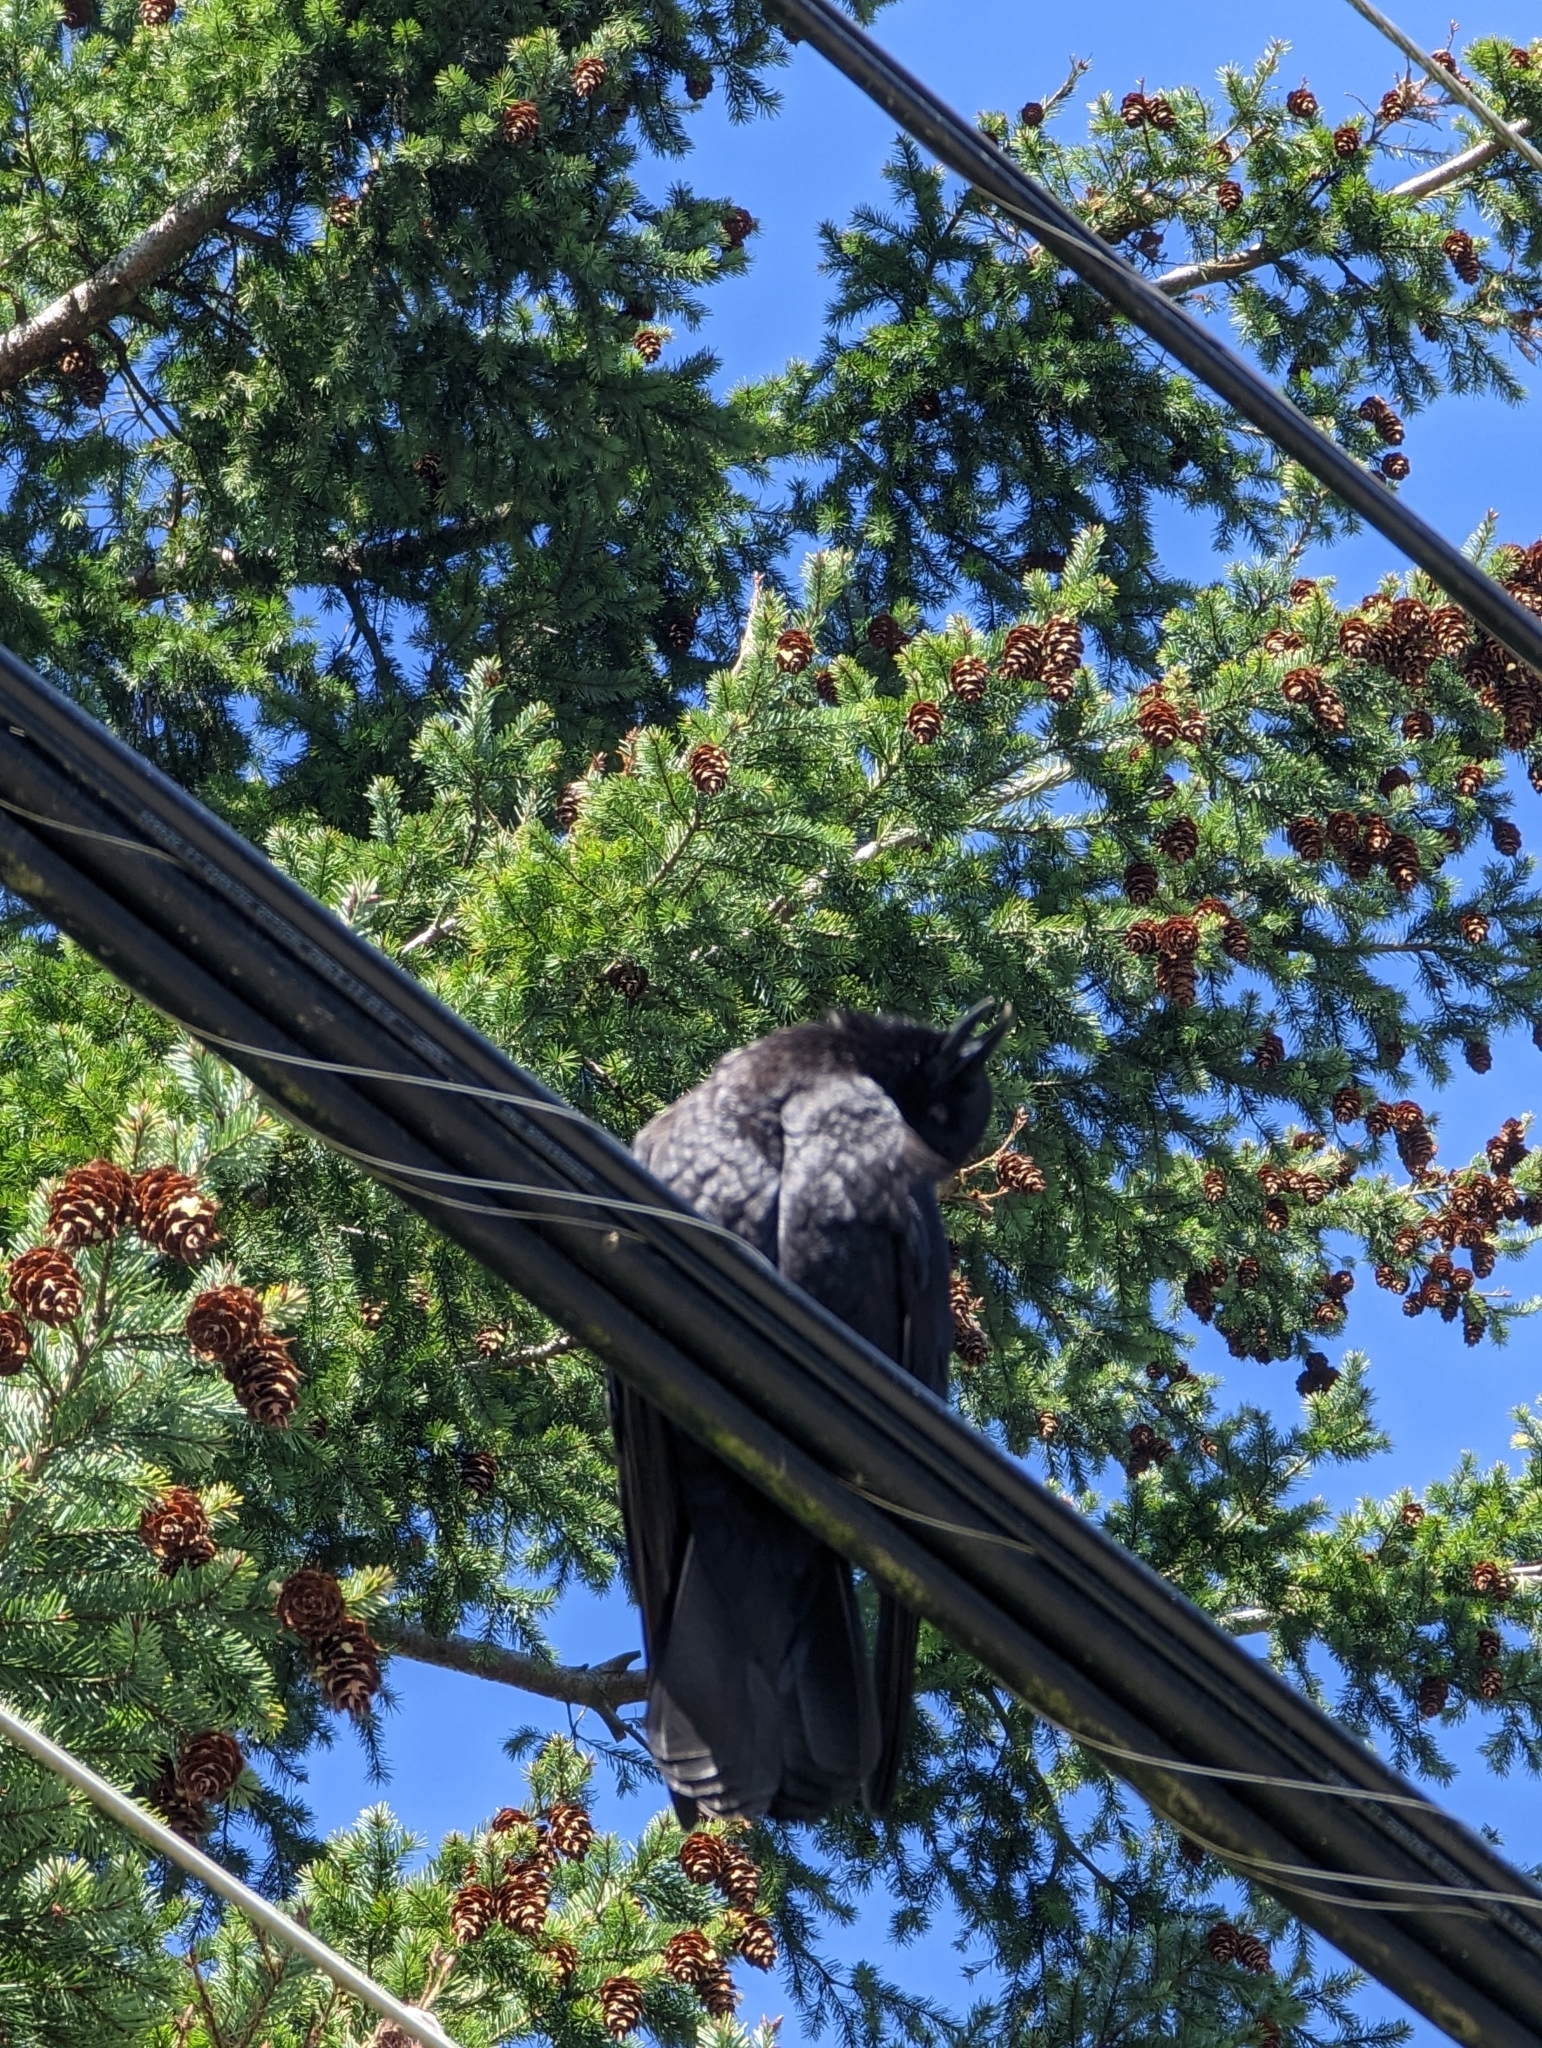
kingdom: Animalia
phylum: Chordata
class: Aves
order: Passeriformes
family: Corvidae
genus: Corvus
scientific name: Corvus brachyrhynchos
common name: American crow
